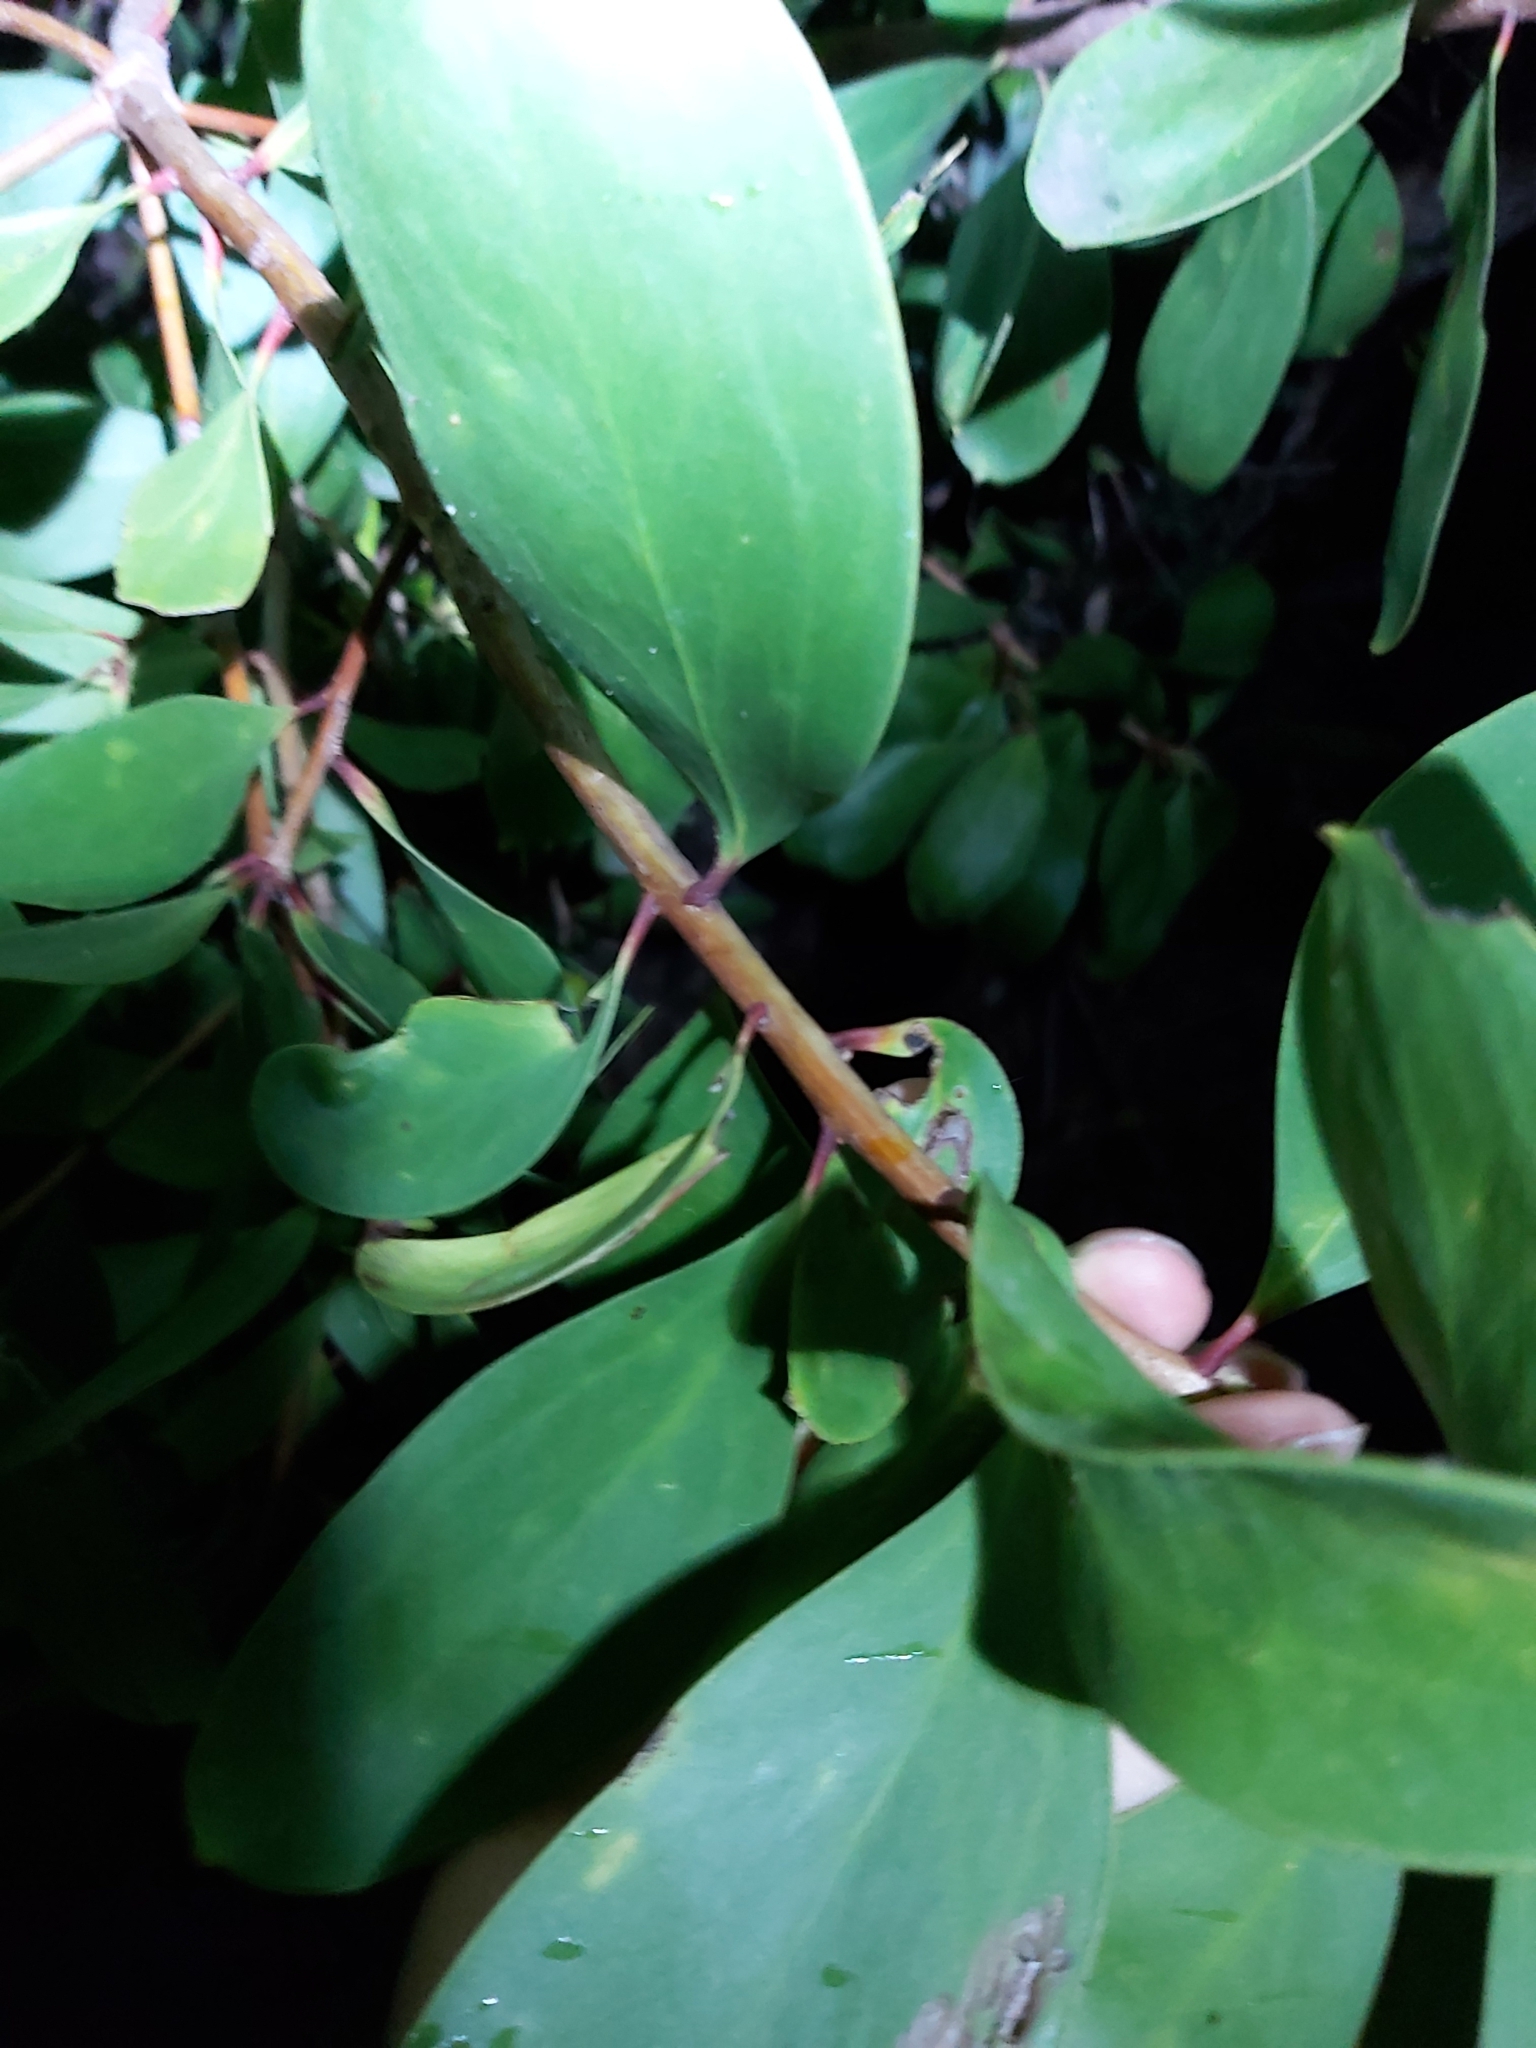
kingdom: Plantae
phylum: Tracheophyta
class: Magnoliopsida
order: Proteales
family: Proteaceae
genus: Persoonia
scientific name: Persoonia levis
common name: Smooth geebung
